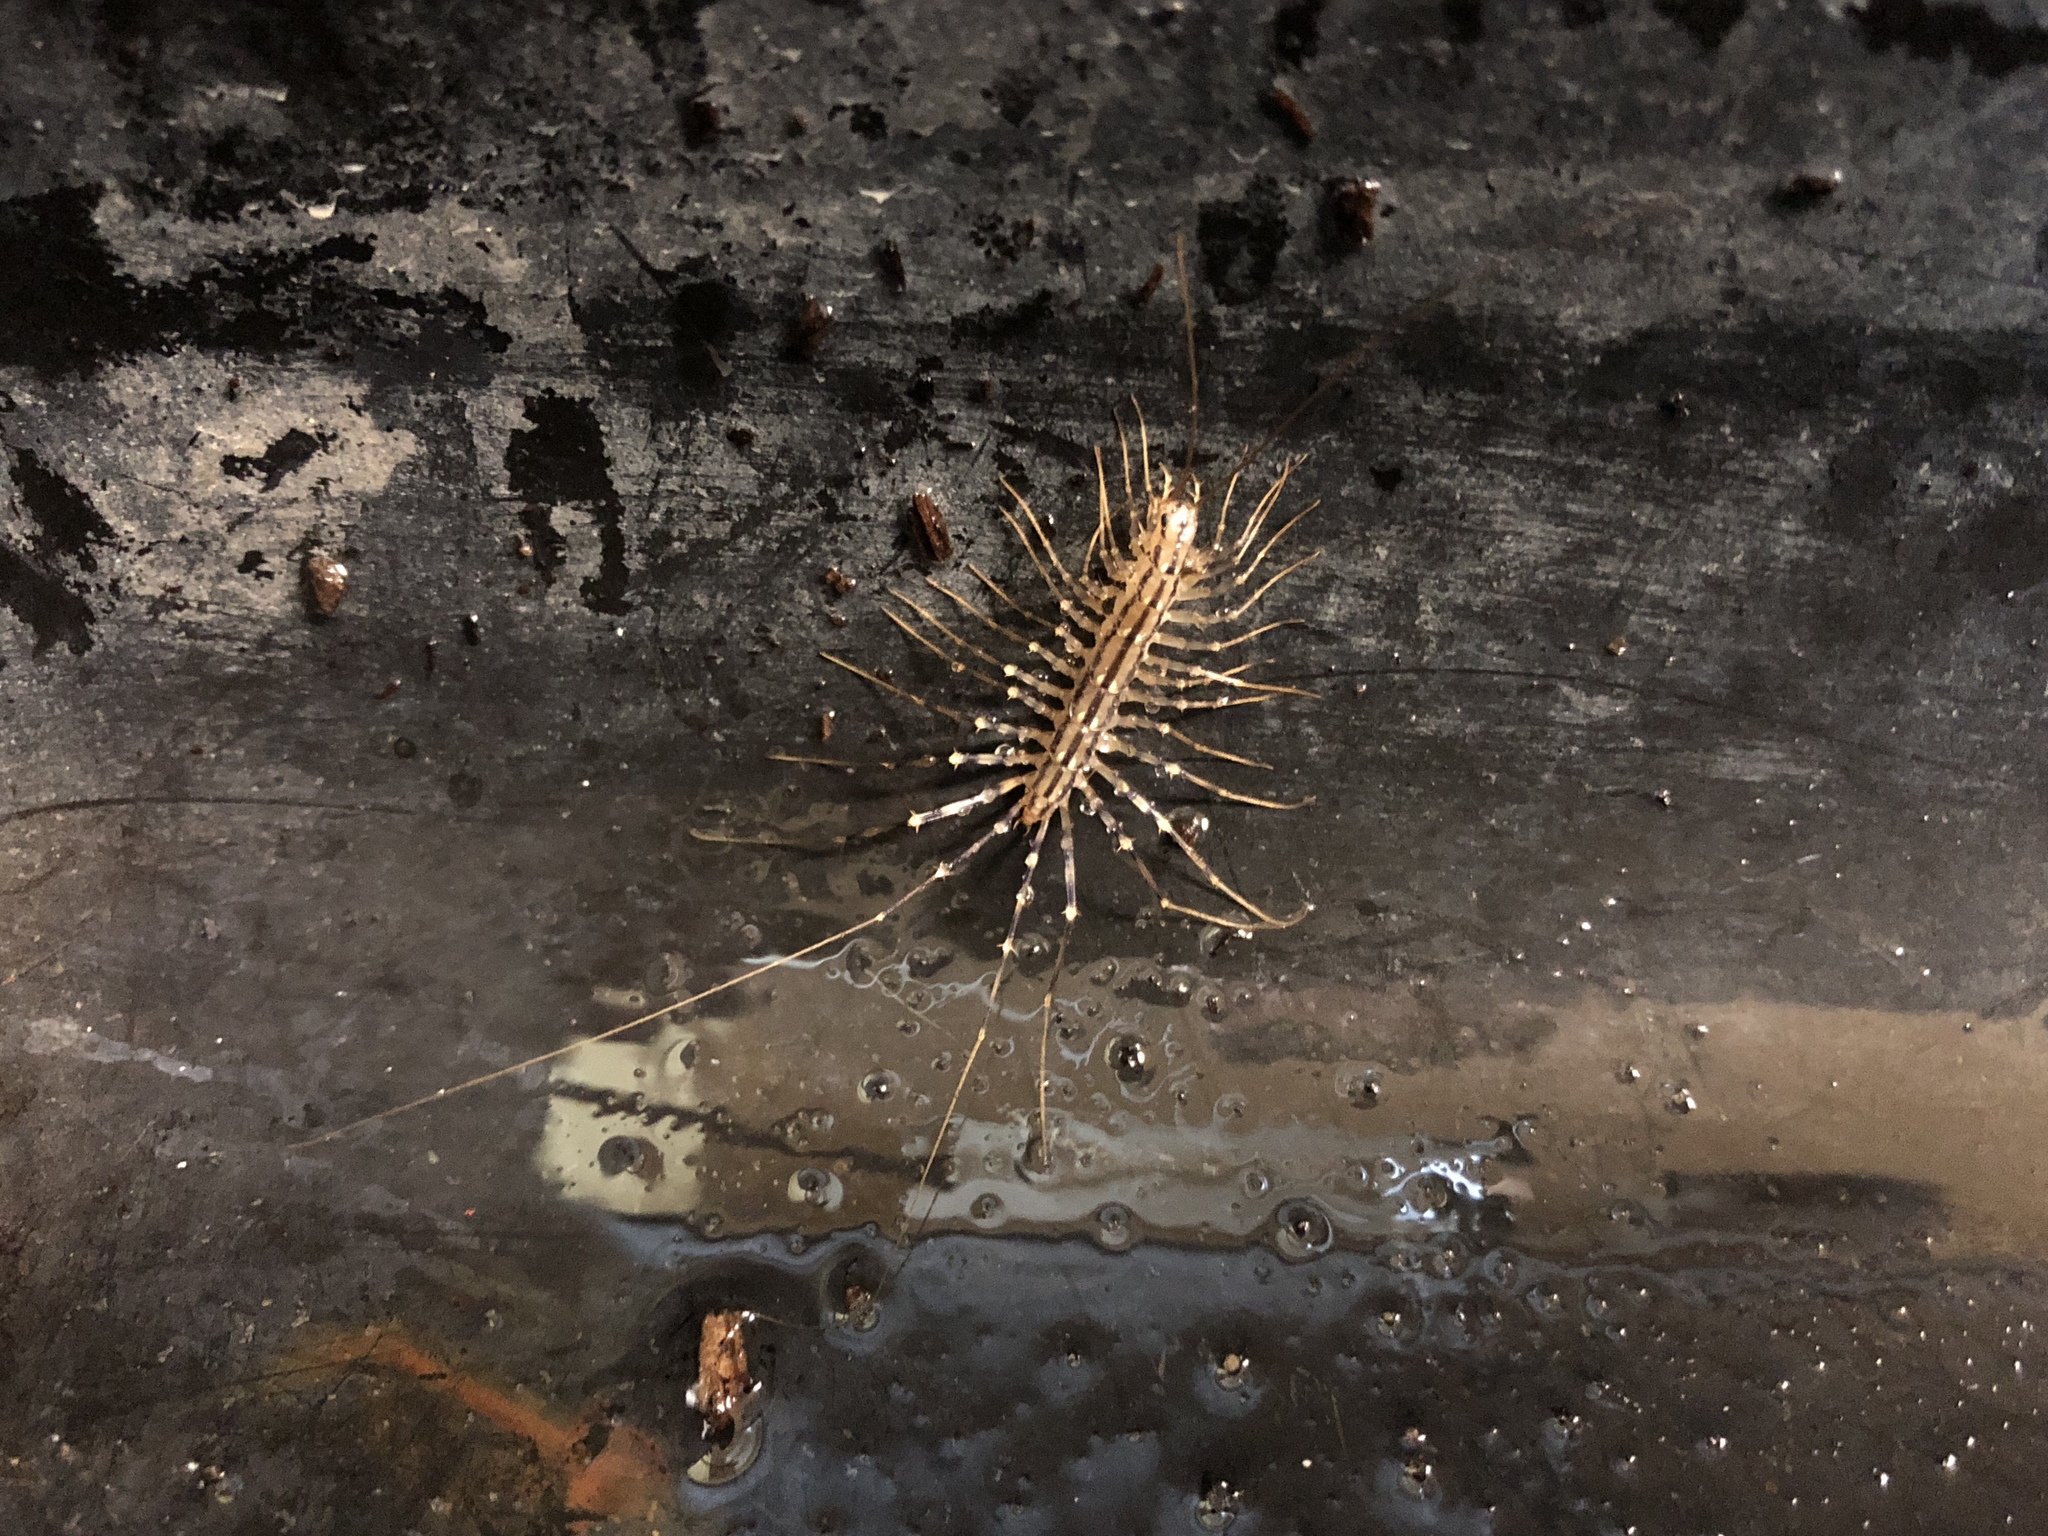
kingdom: Animalia
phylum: Arthropoda
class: Chilopoda
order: Scutigeromorpha
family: Scutigeridae
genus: Scutigera
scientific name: Scutigera coleoptrata
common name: House centipede
